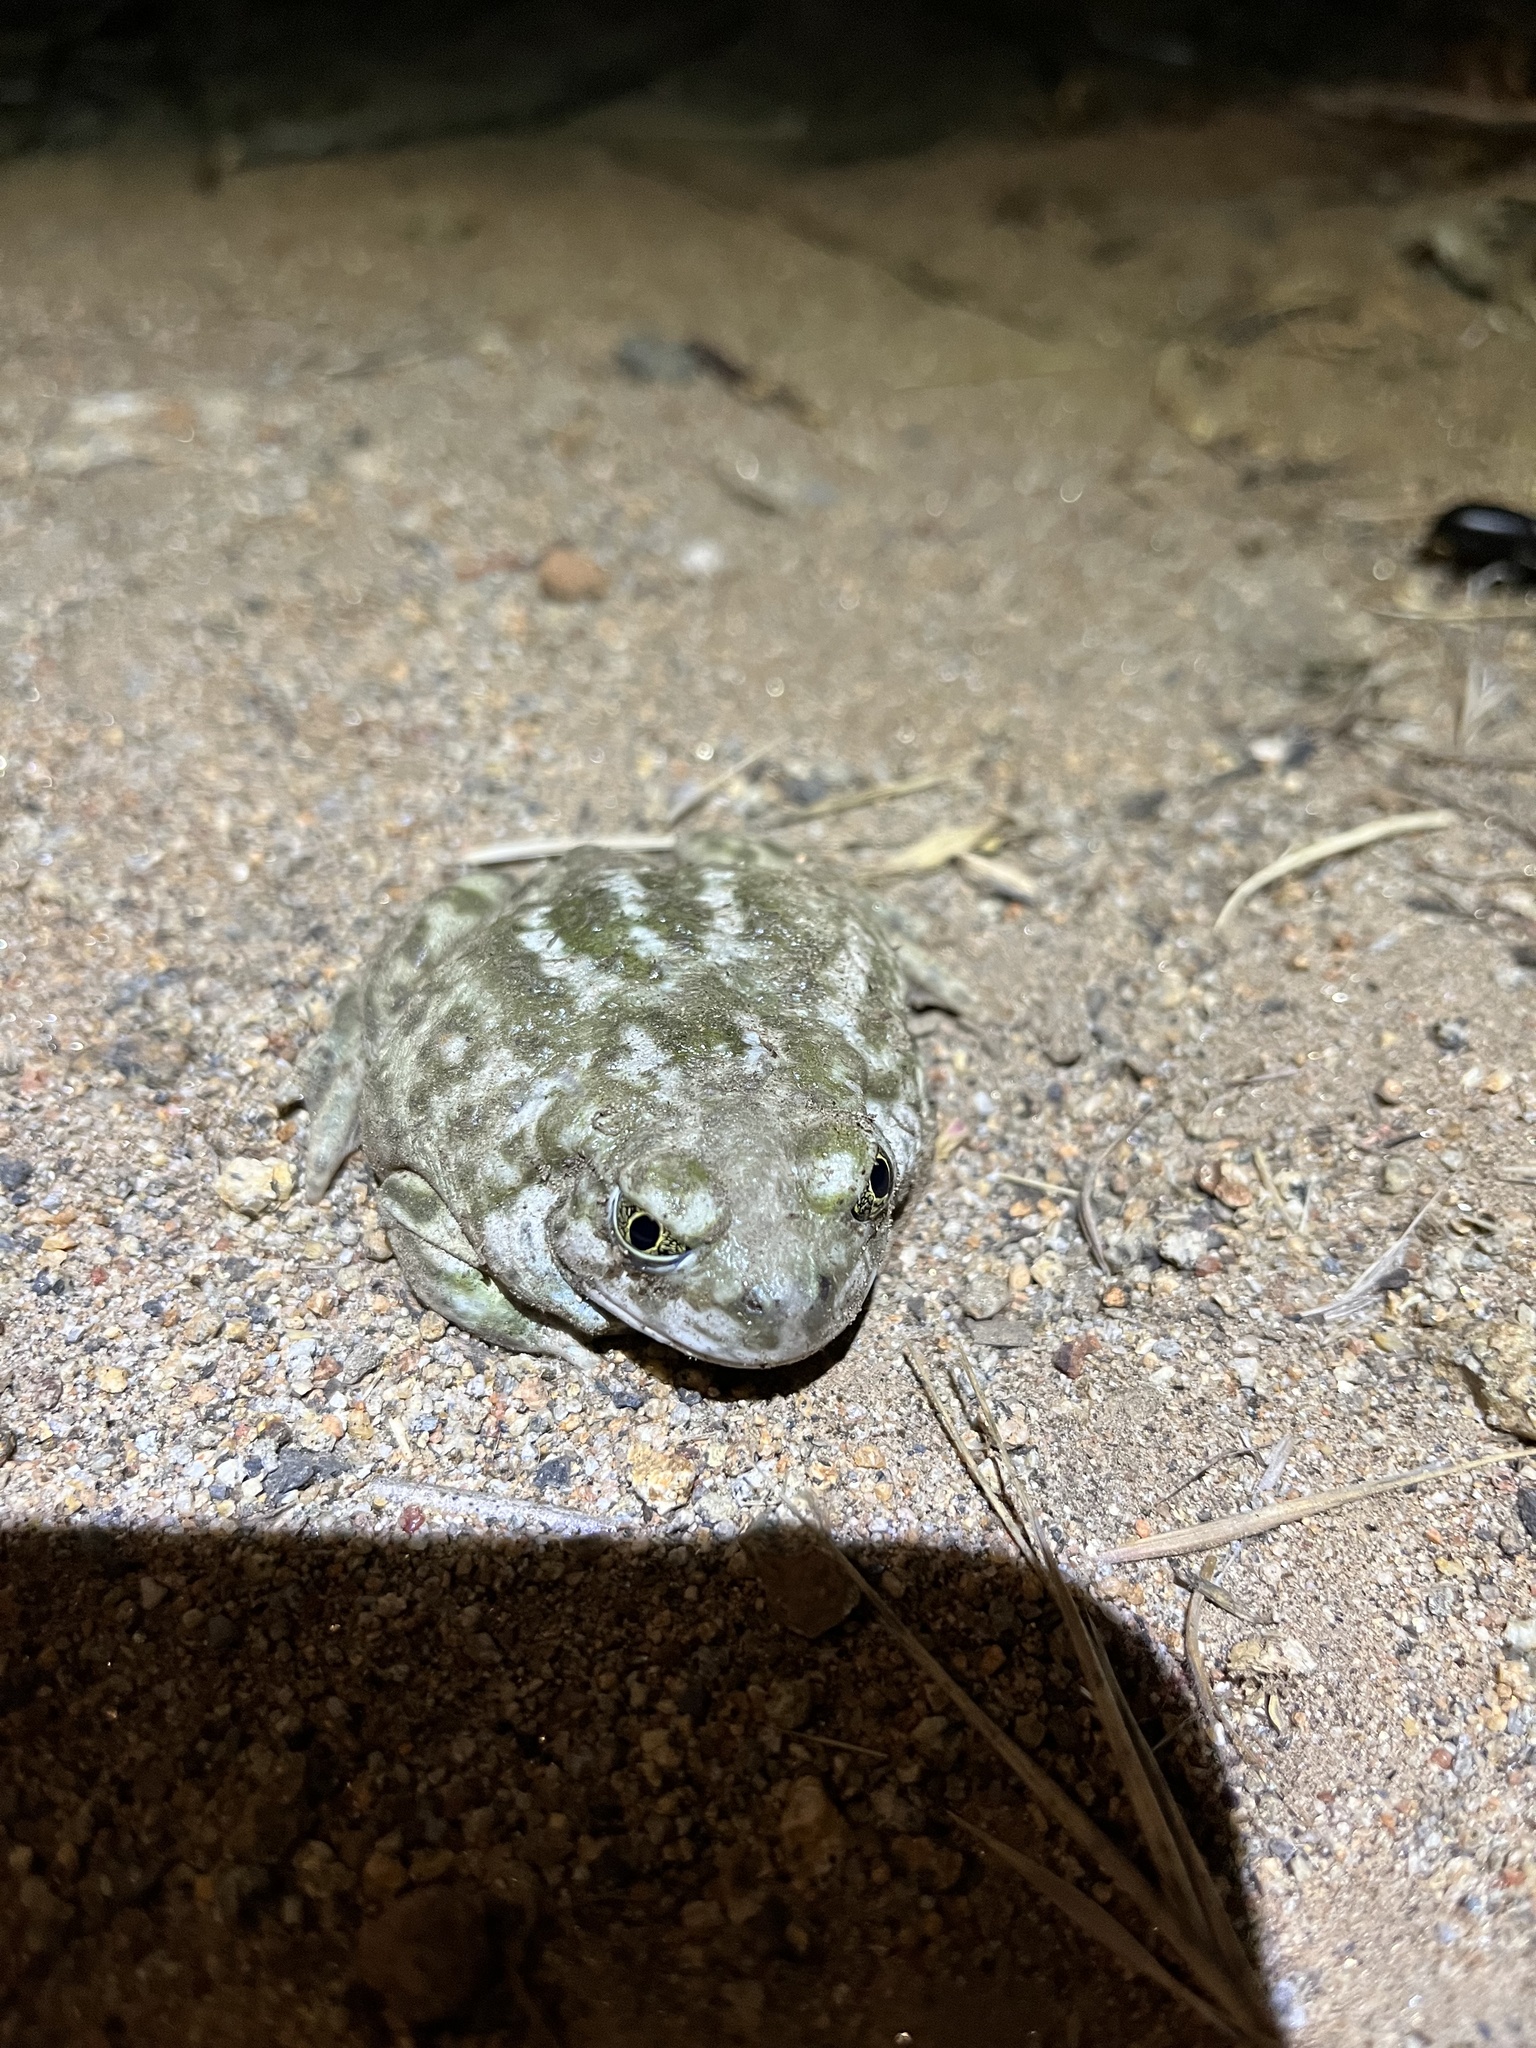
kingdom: Animalia
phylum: Chordata
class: Amphibia
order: Anura
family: Scaphiopodidae
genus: Spea
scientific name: Spea hammondii
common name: Western spadefoot toad
